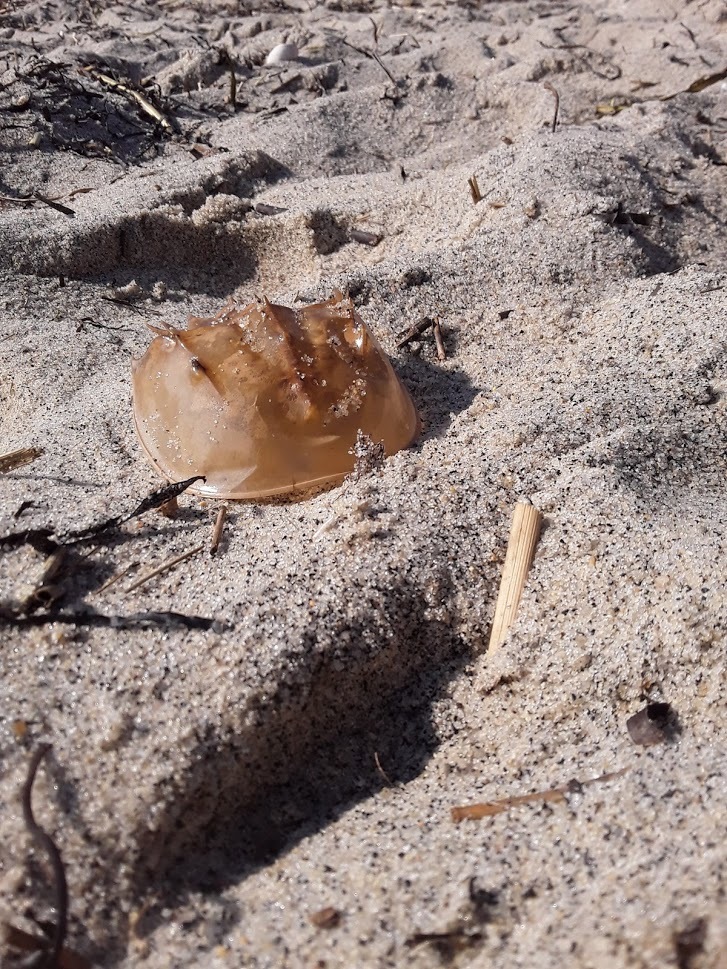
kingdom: Animalia
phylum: Arthropoda
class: Merostomata
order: Xiphosurida
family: Limulidae
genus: Limulus
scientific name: Limulus polyphemus
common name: Horseshoe crab
